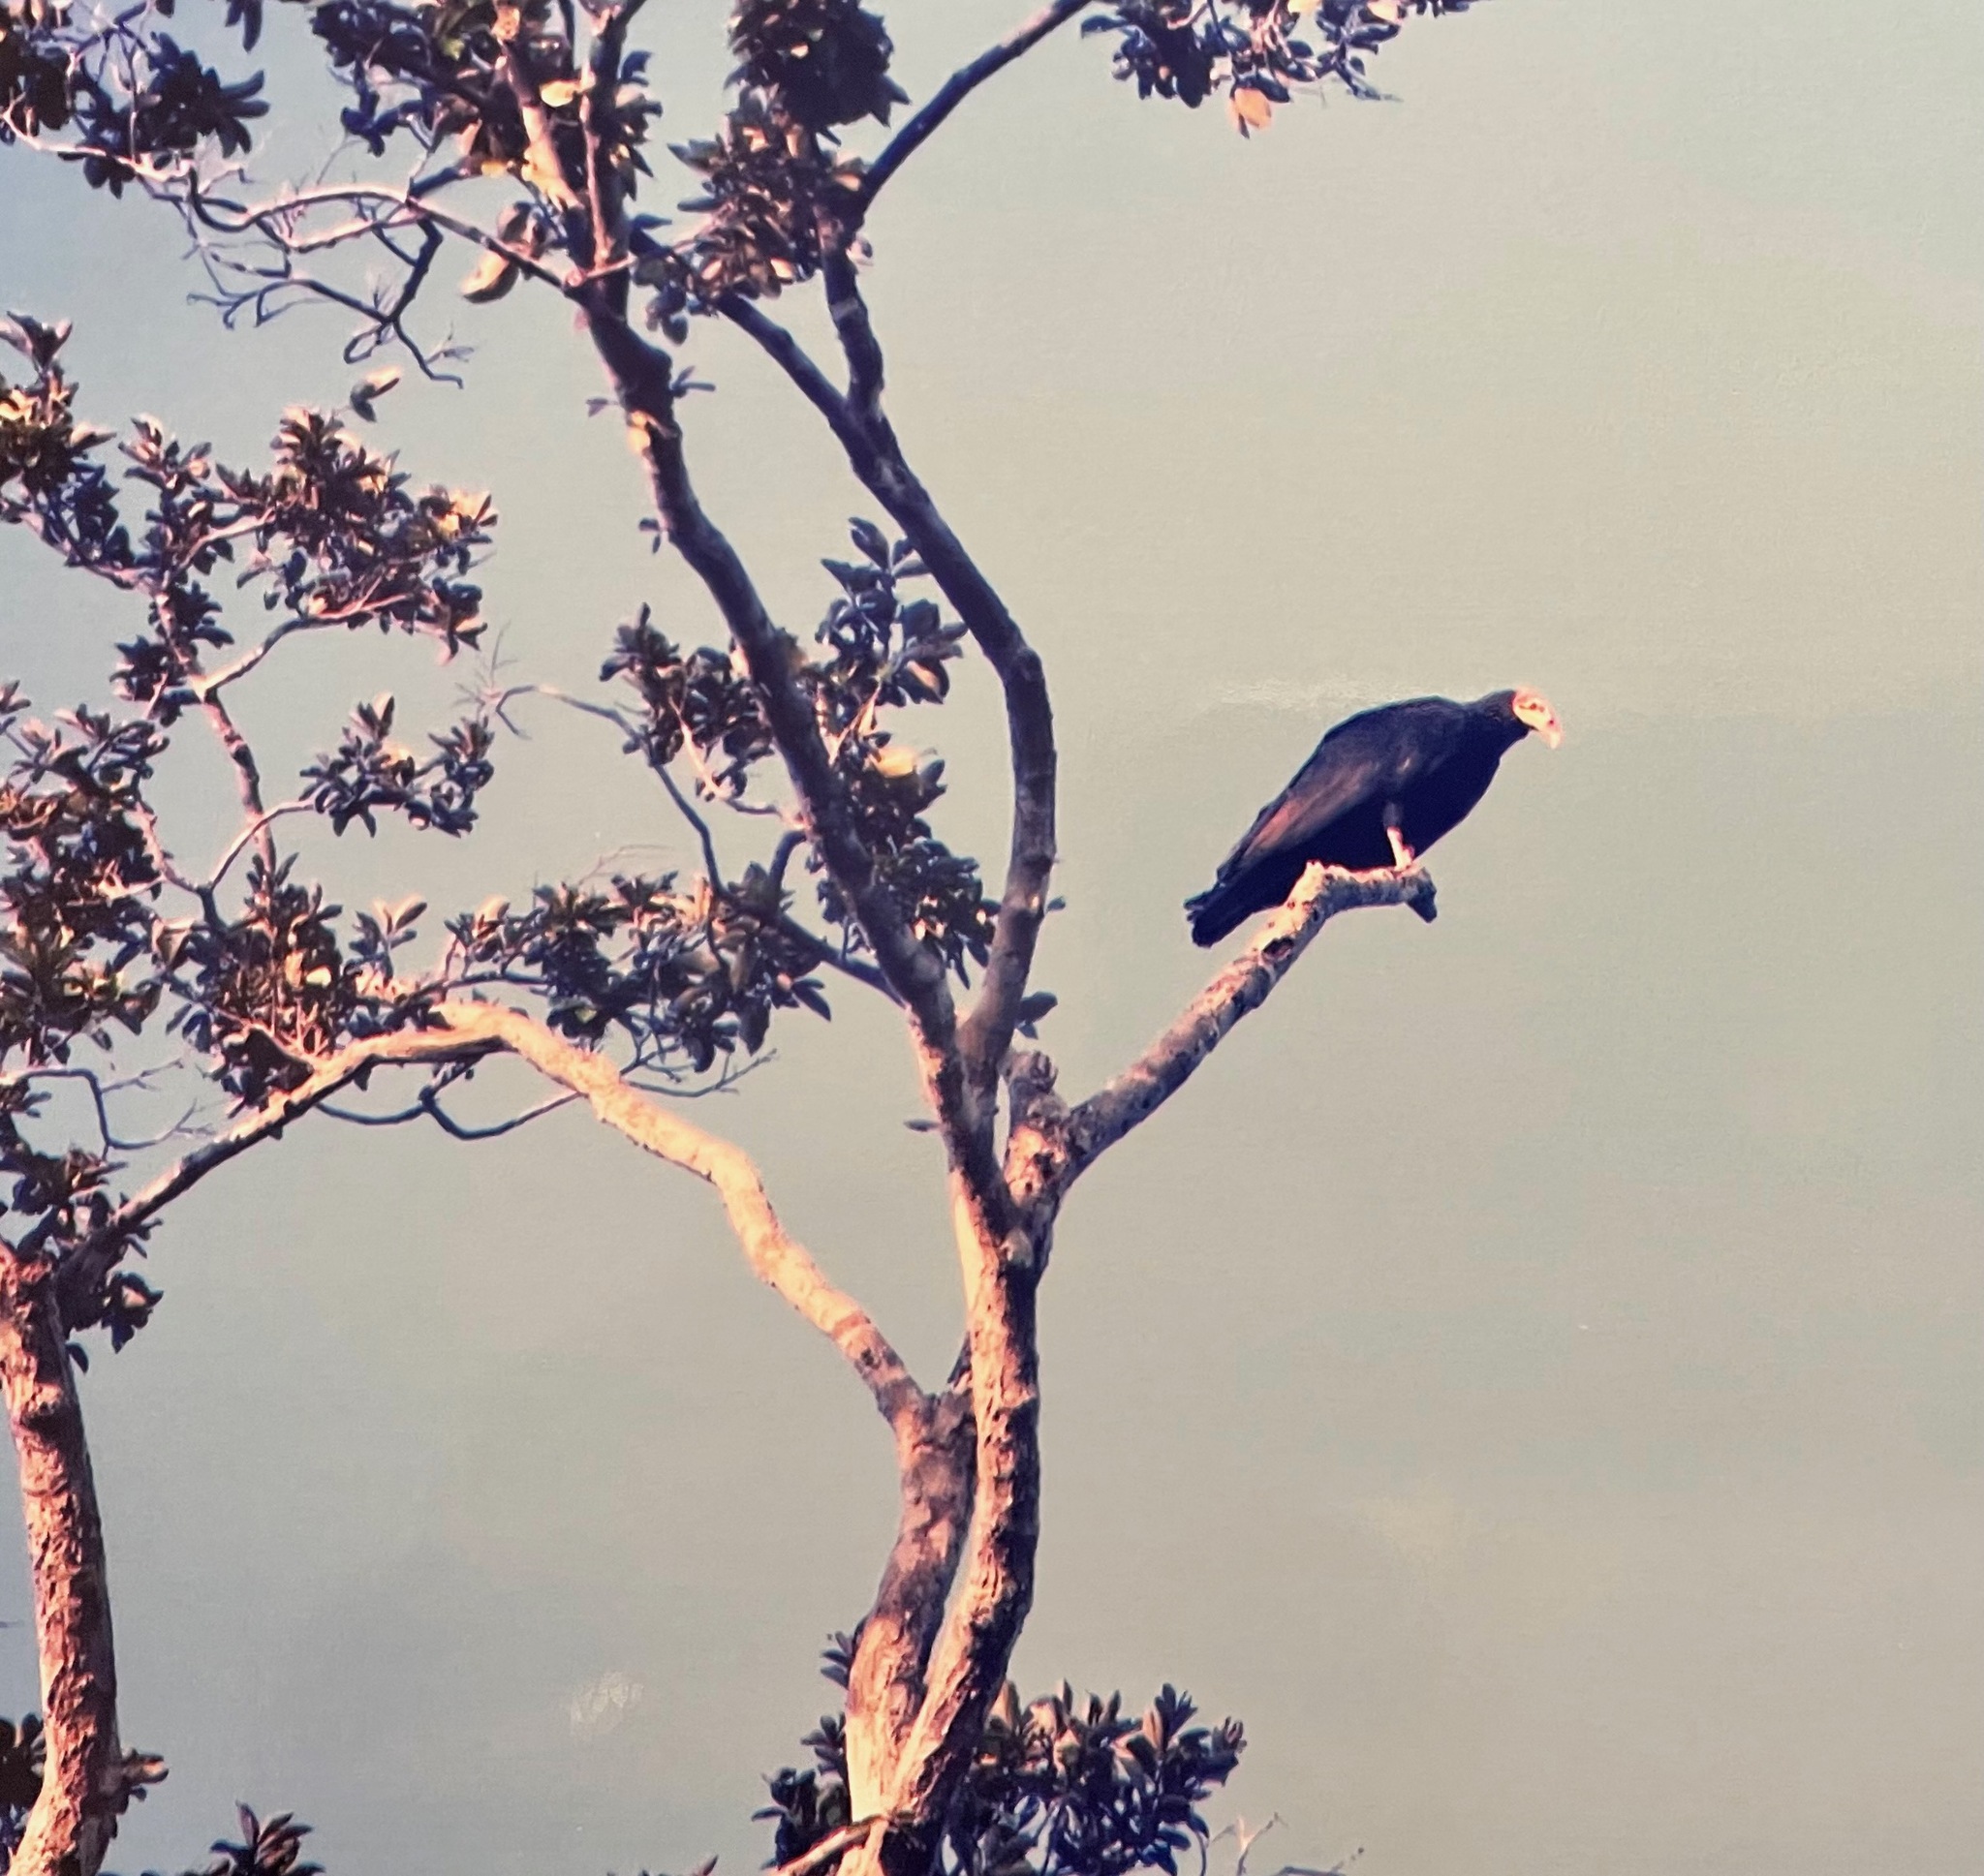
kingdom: Animalia
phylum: Chordata
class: Aves
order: Accipitriformes
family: Cathartidae
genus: Cathartes
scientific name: Cathartes melambrotus
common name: Greater yellow-headed vulture
